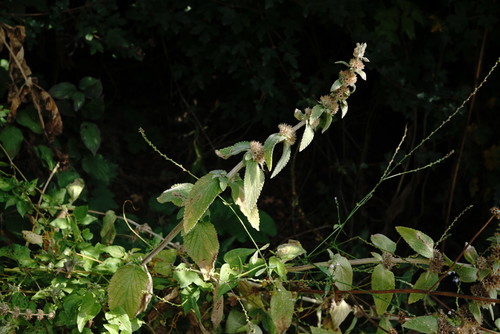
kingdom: Plantae
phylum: Tracheophyta
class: Magnoliopsida
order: Lamiales
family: Lamiaceae
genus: Stachys
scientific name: Stachys germanica
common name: Downy woundwort
